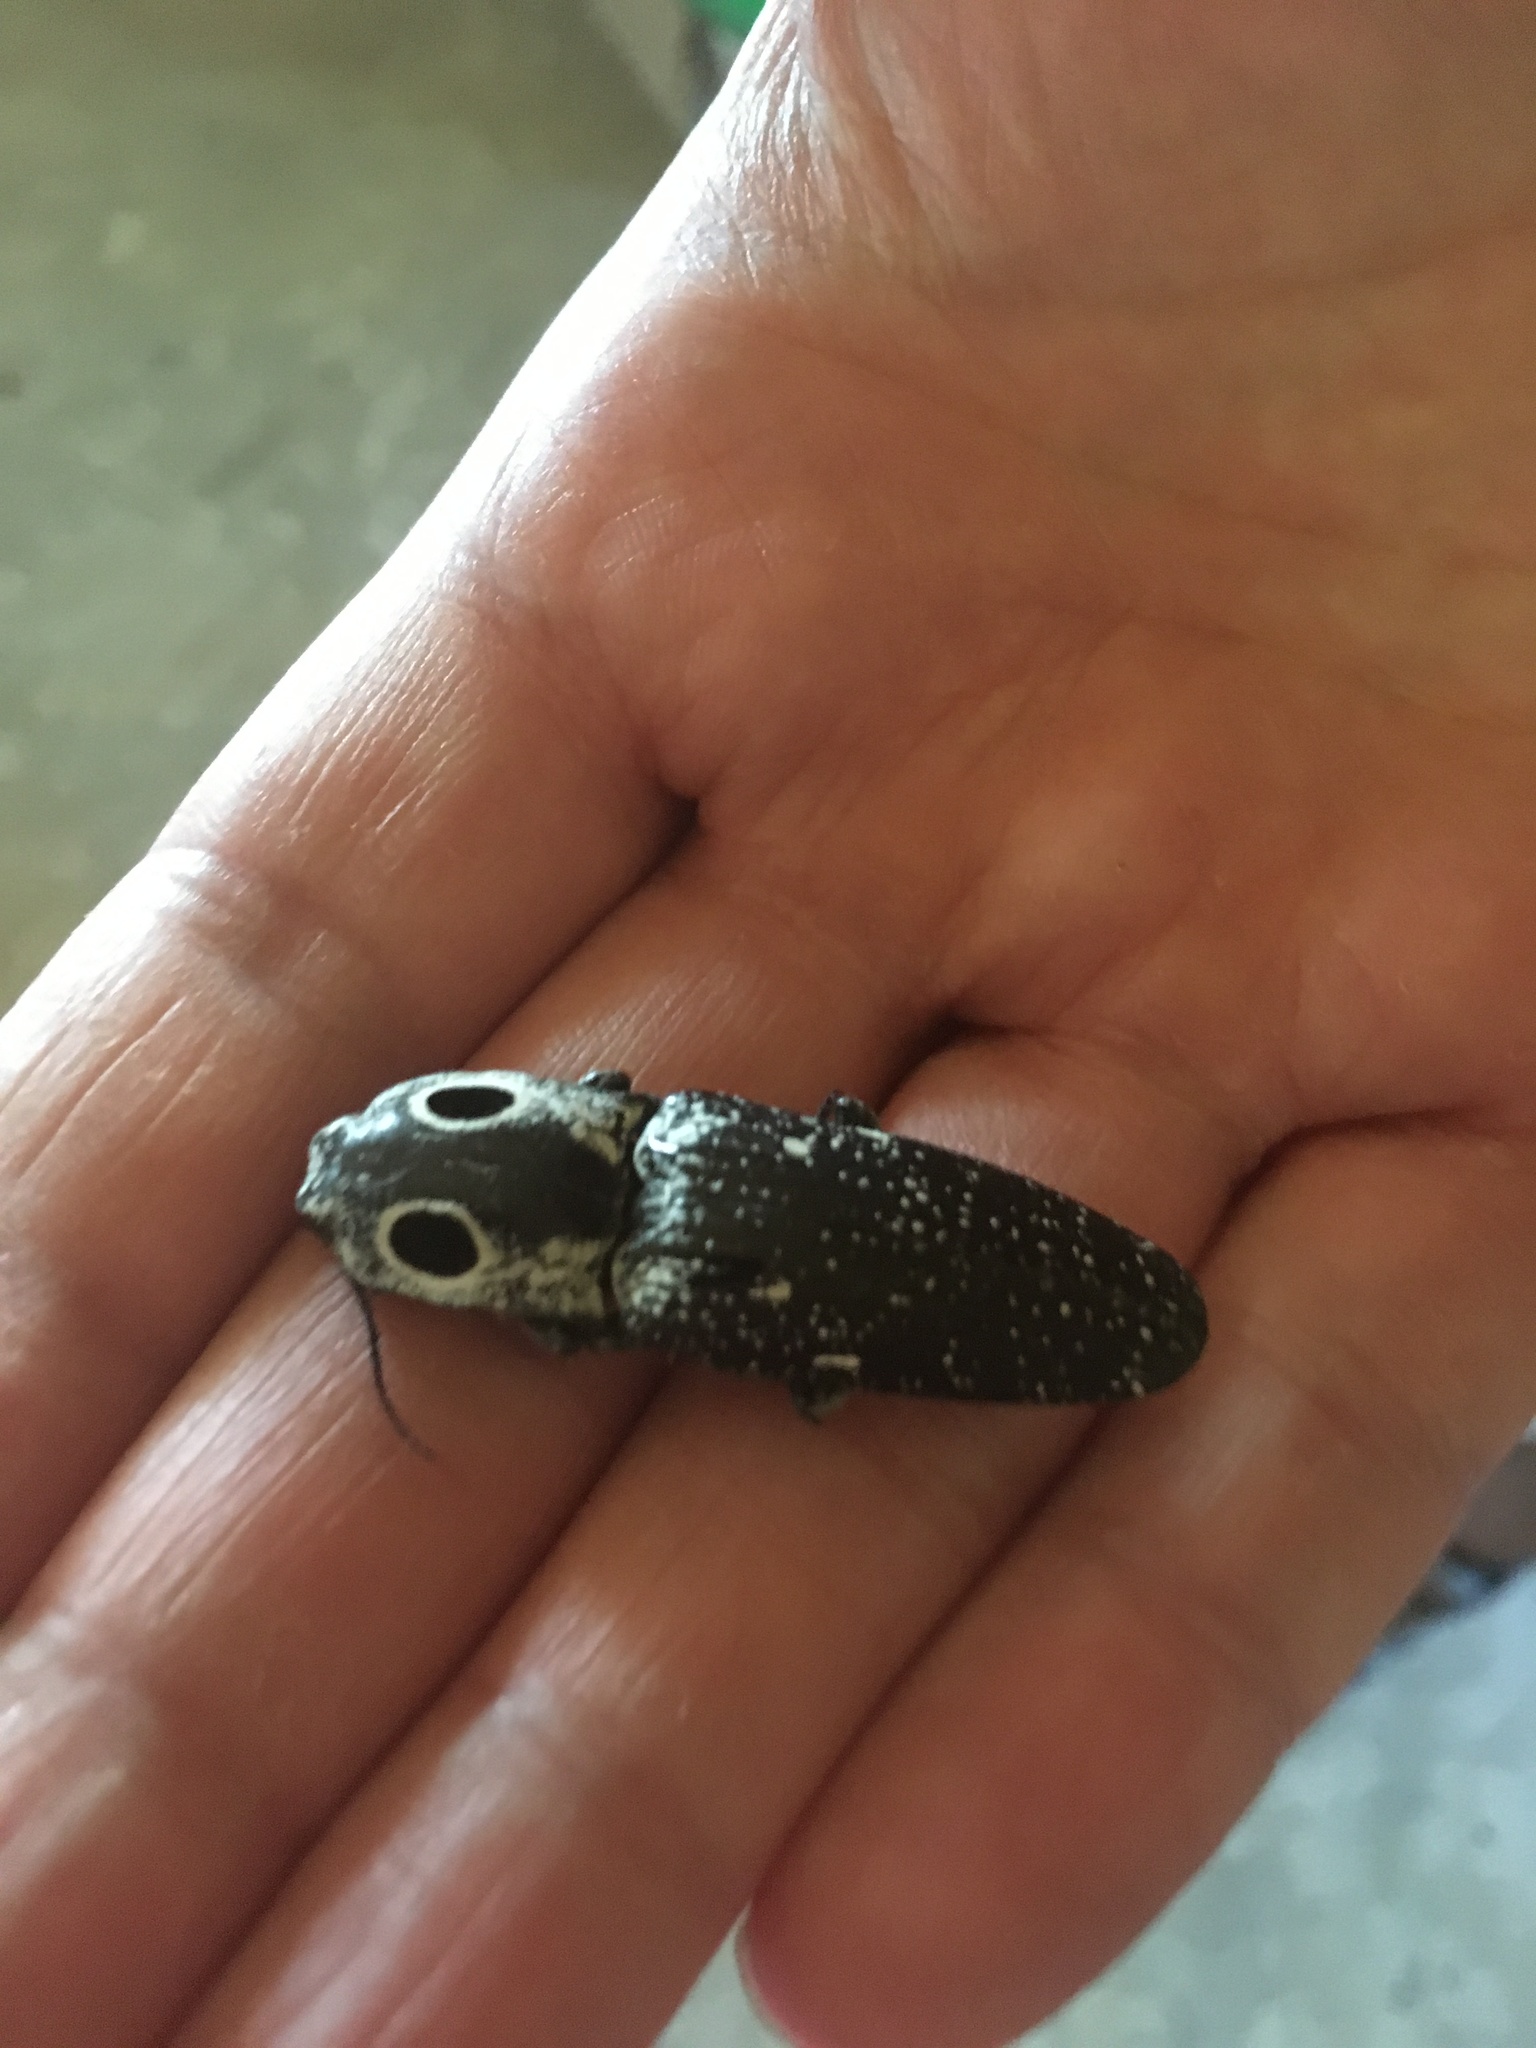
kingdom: Animalia
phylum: Arthropoda
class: Insecta
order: Coleoptera
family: Elateridae
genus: Alaus
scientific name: Alaus oculatus
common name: Eastern eyed click beetle
